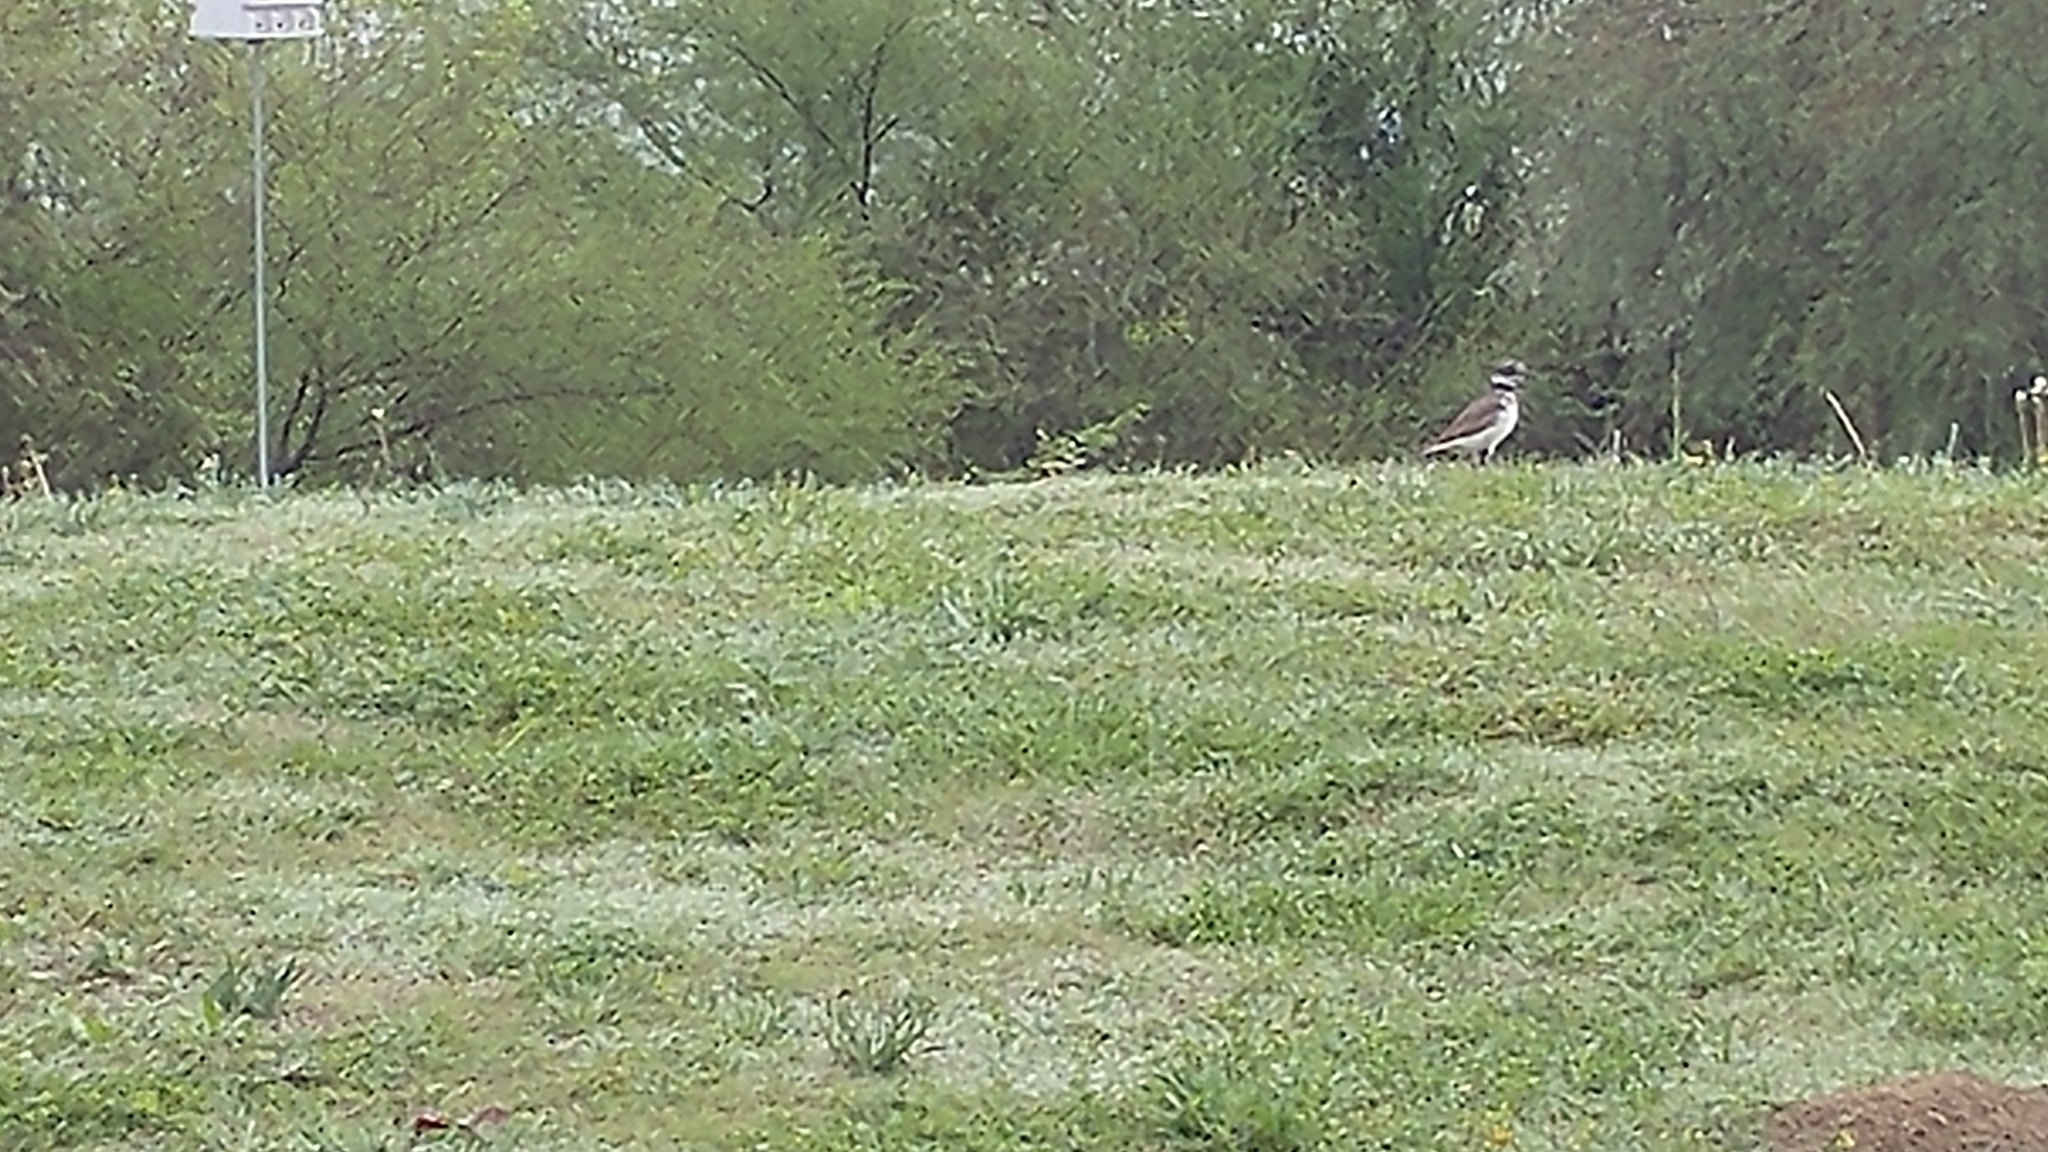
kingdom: Animalia
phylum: Chordata
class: Aves
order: Charadriiformes
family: Charadriidae
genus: Charadrius
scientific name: Charadrius vociferus
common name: Killdeer
